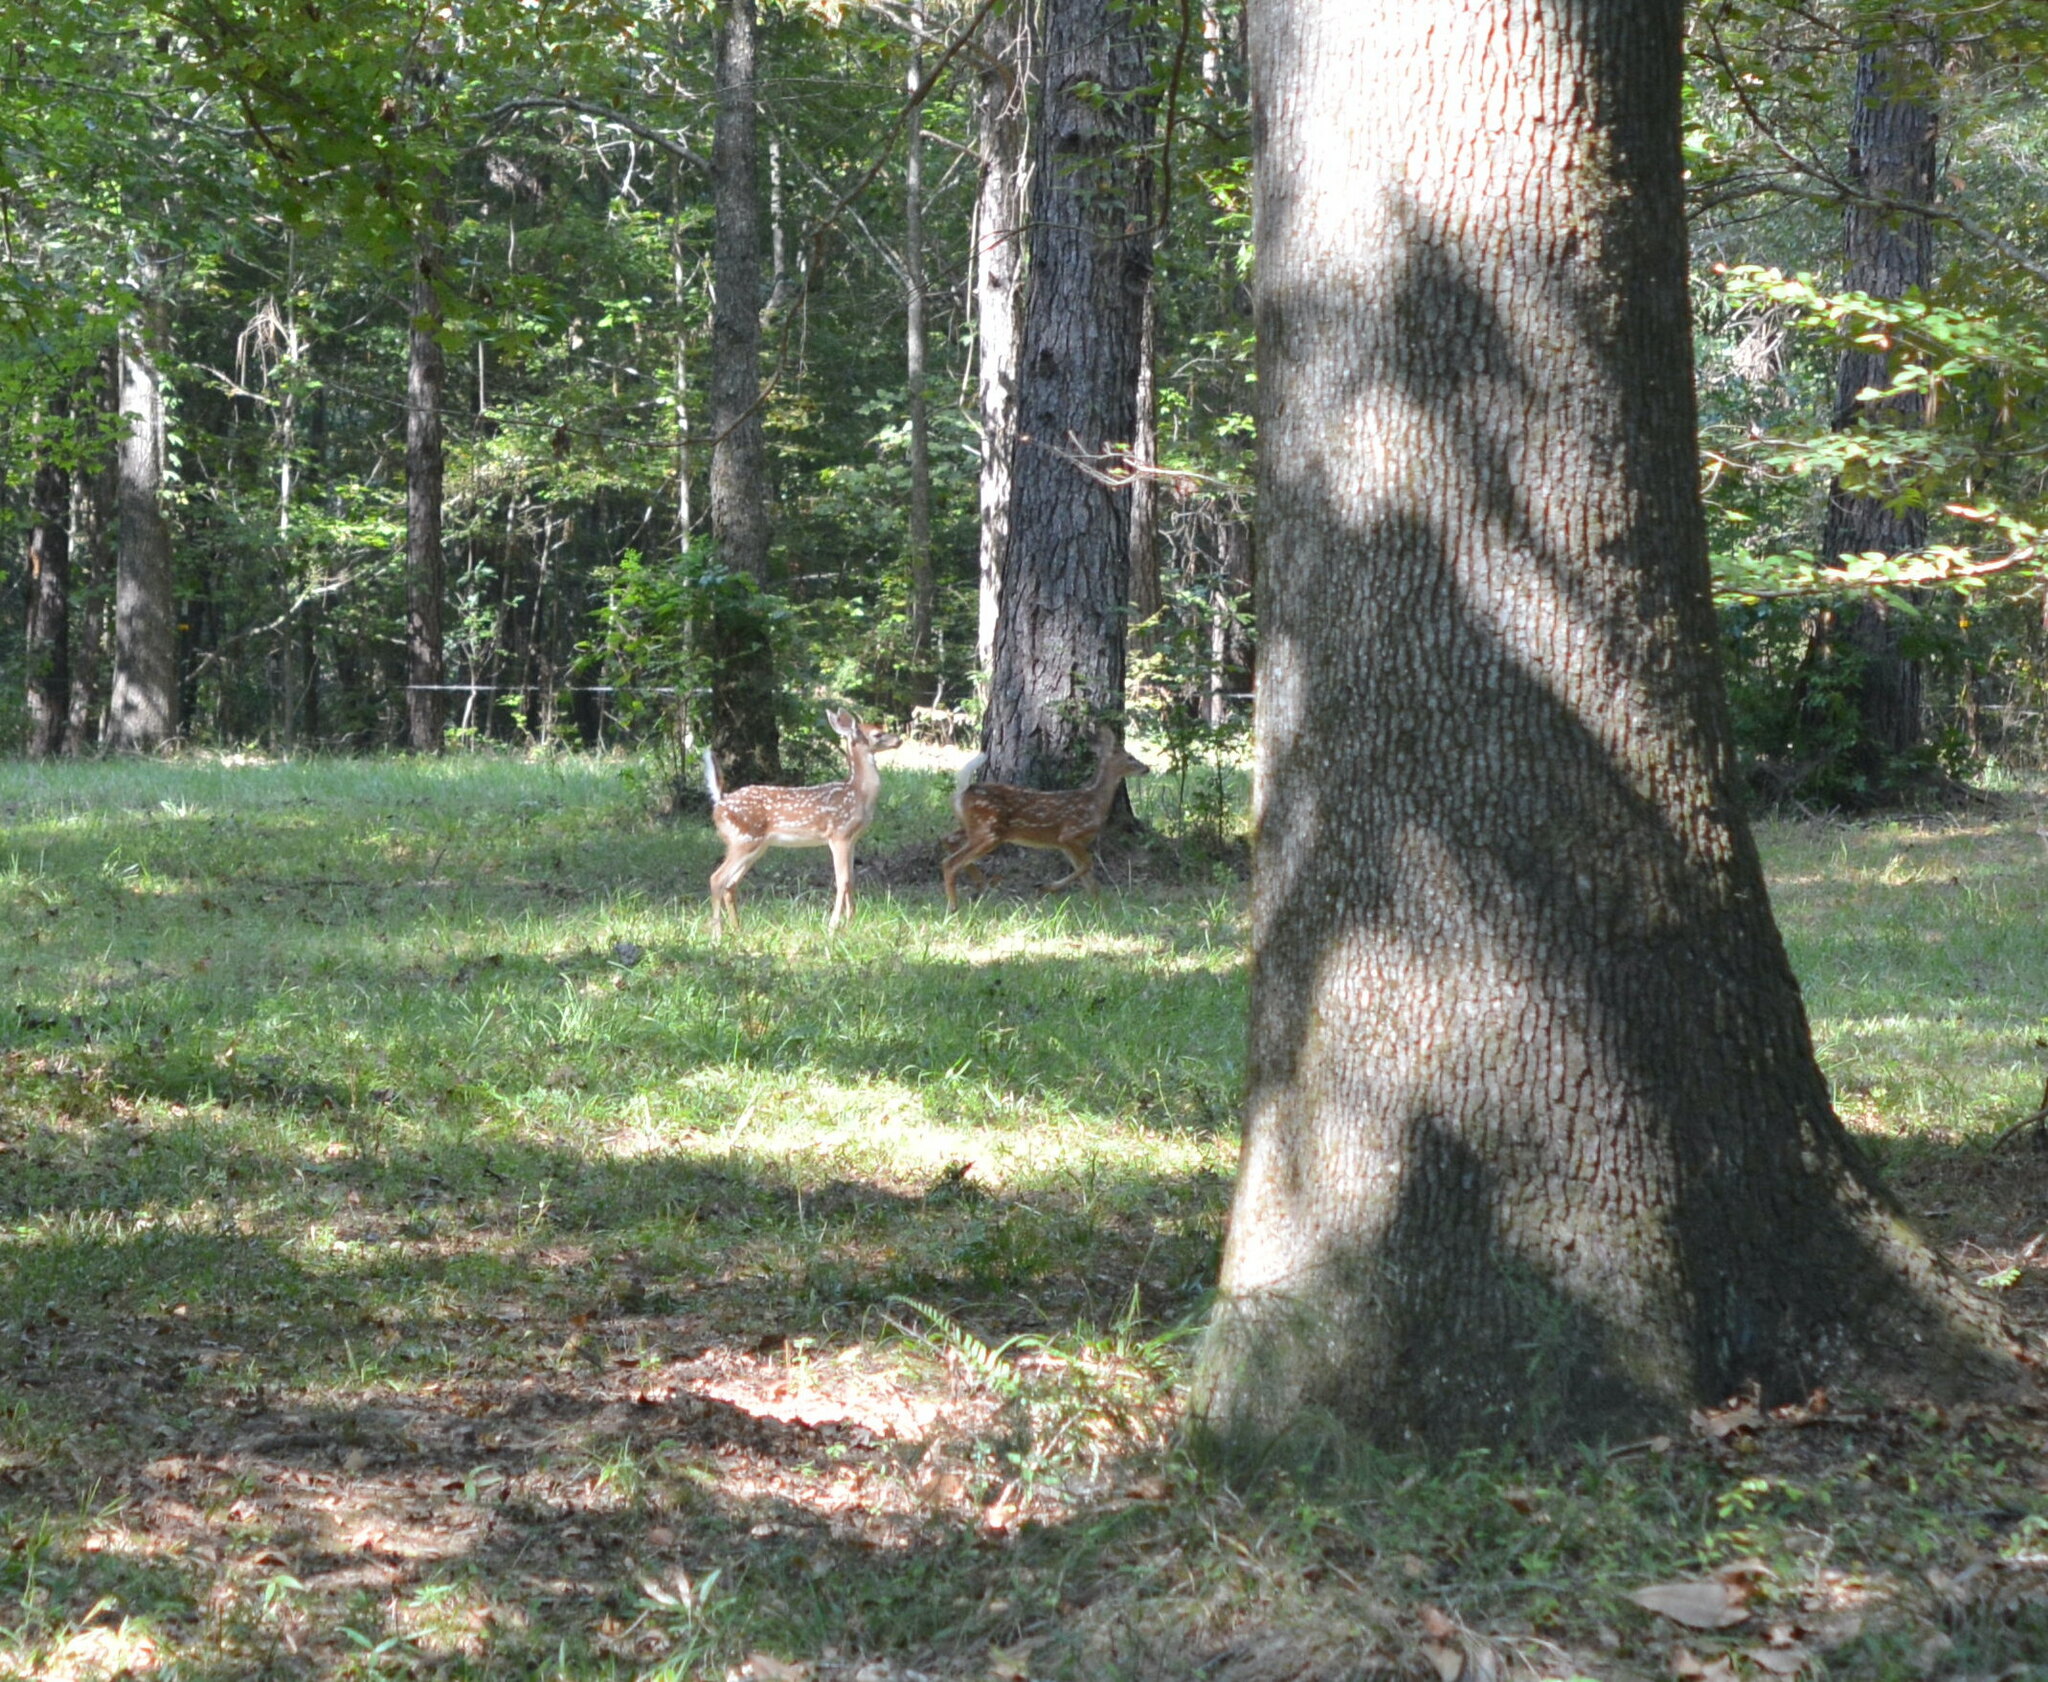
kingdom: Animalia
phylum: Chordata
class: Mammalia
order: Artiodactyla
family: Cervidae
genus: Odocoileus
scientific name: Odocoileus virginianus
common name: White-tailed deer
